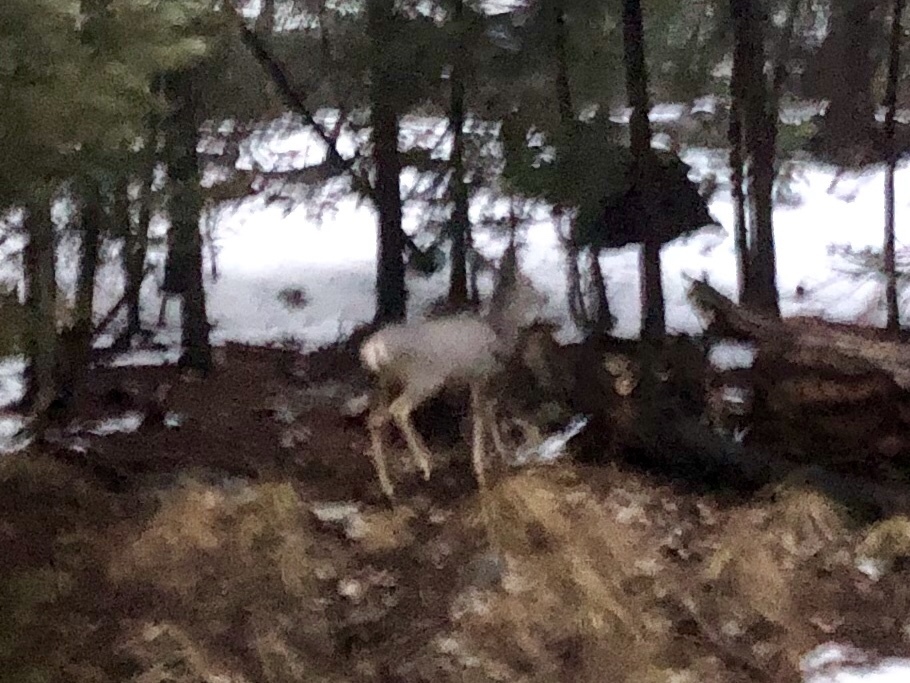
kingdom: Animalia
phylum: Chordata
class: Mammalia
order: Artiodactyla
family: Cervidae
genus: Odocoileus
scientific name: Odocoileus hemionus
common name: Mule deer
